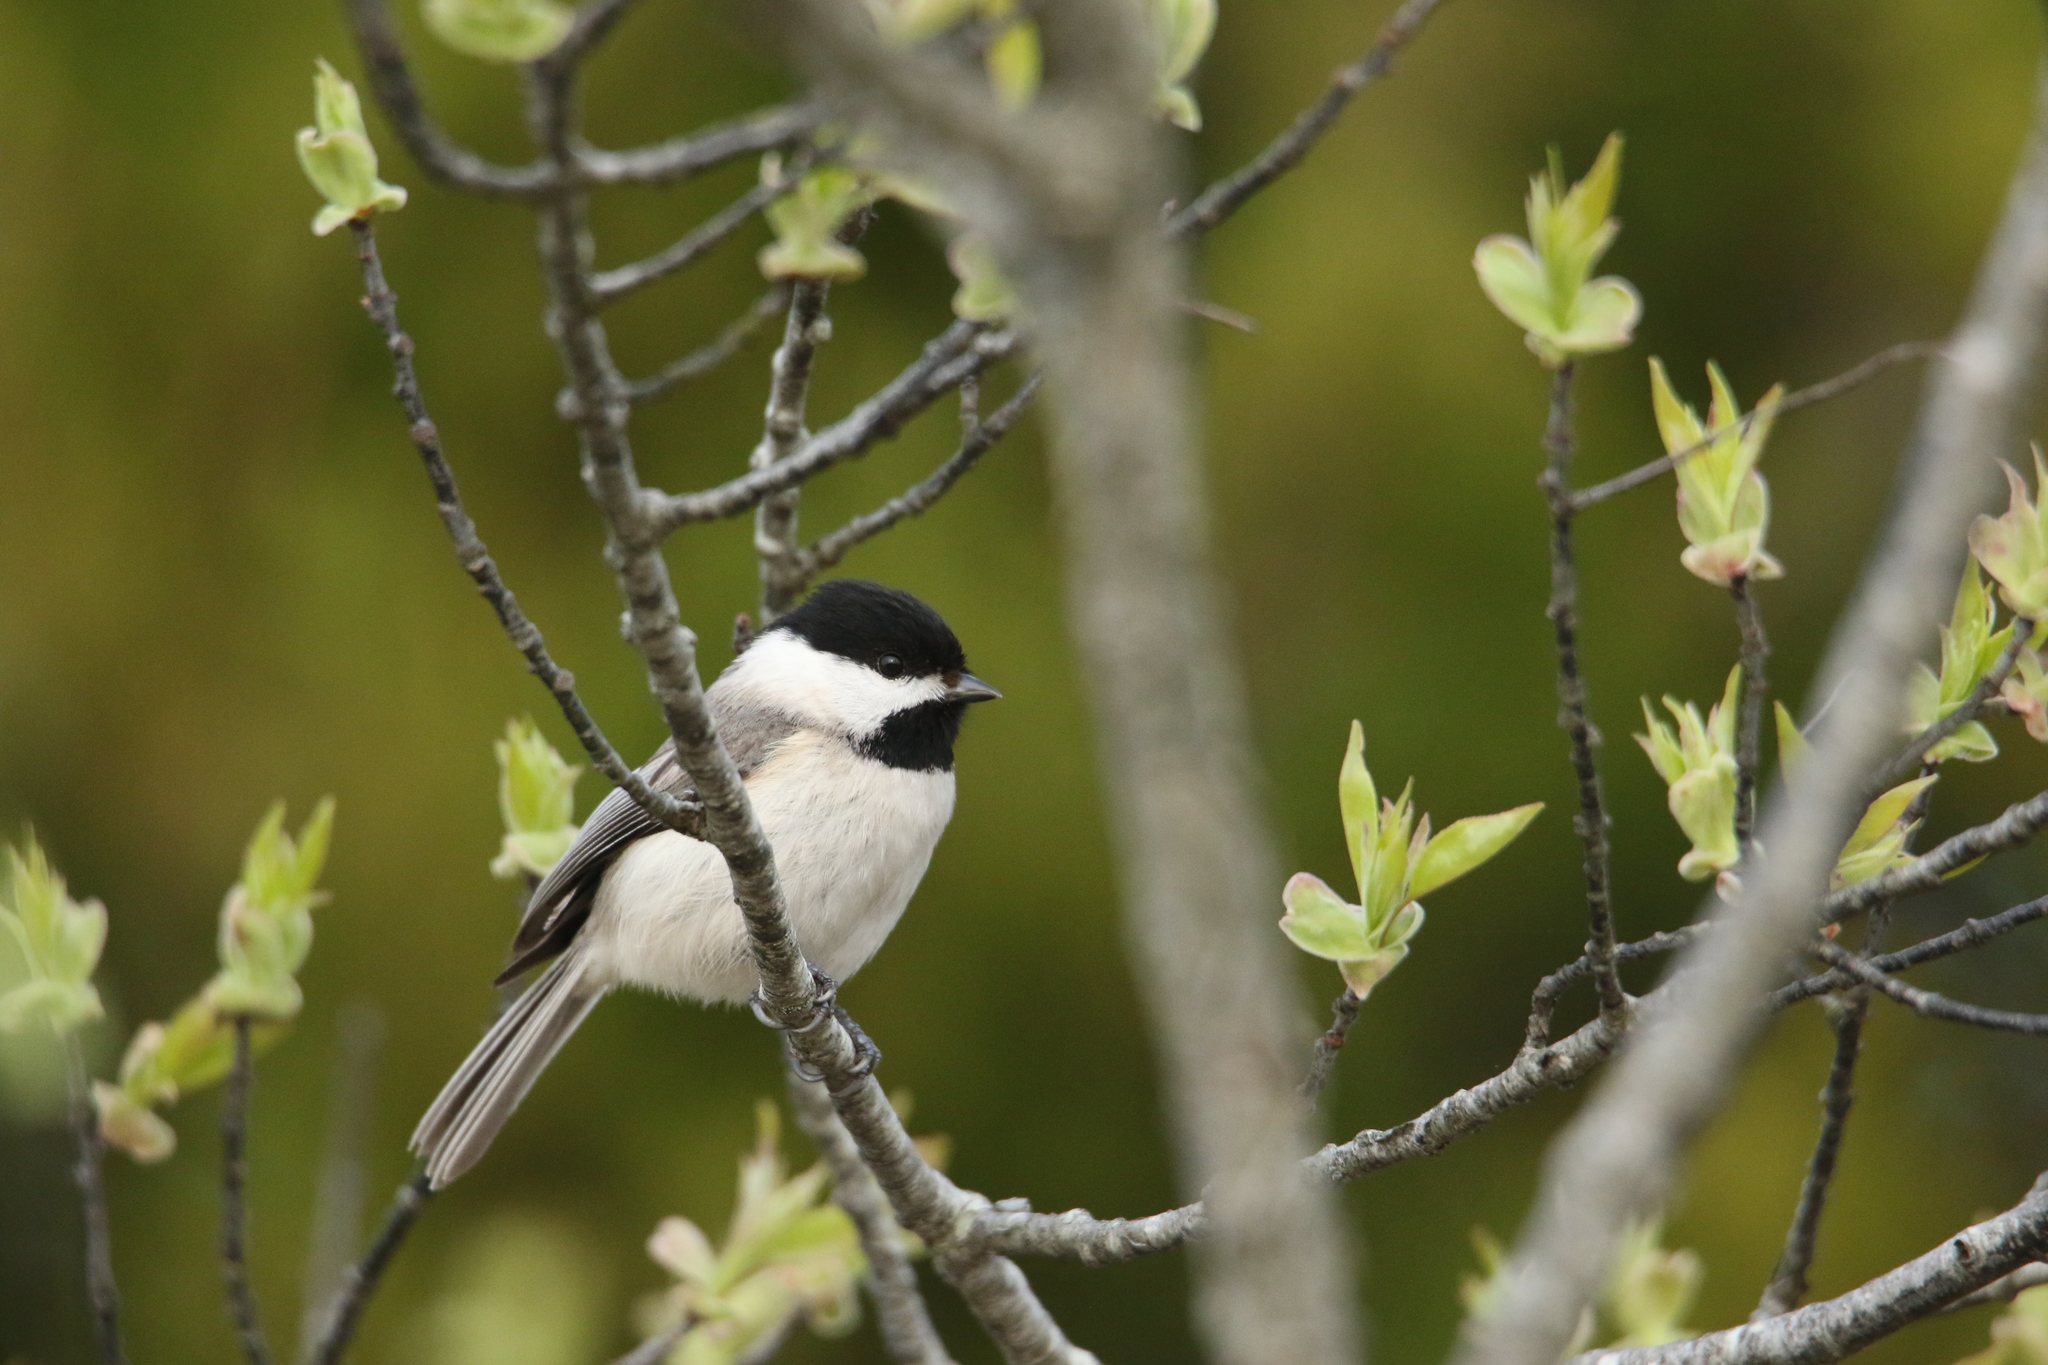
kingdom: Animalia
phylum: Chordata
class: Aves
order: Passeriformes
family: Paridae
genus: Poecile
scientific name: Poecile carolinensis
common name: Carolina chickadee
